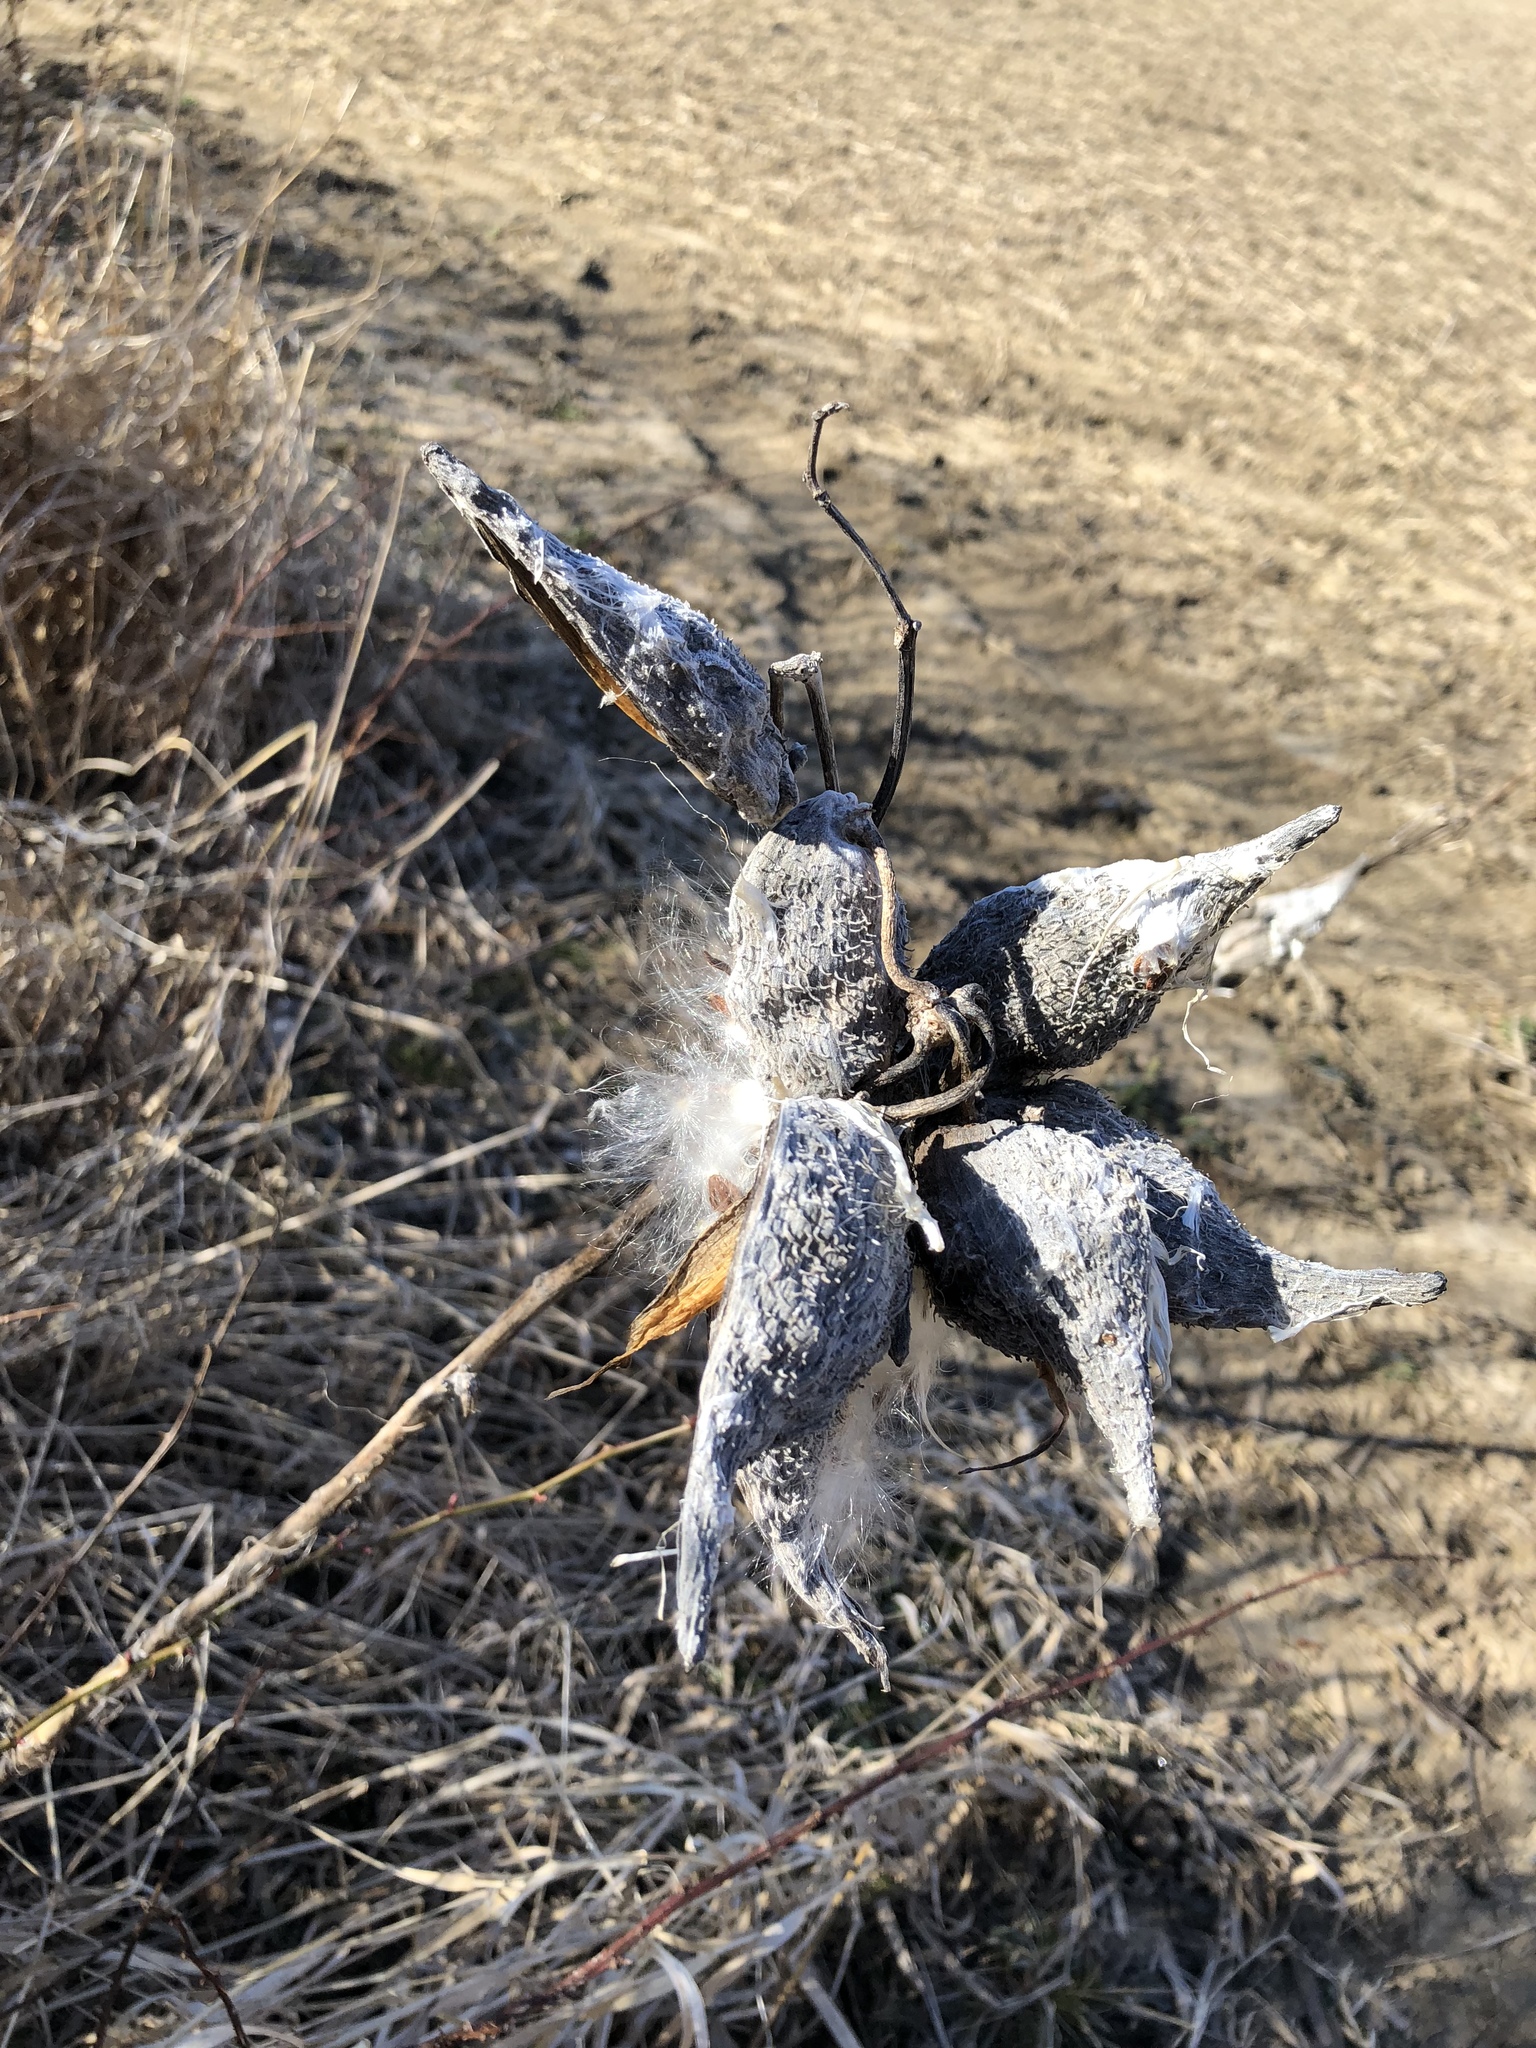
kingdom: Plantae
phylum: Tracheophyta
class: Magnoliopsida
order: Gentianales
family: Apocynaceae
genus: Asclepias
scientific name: Asclepias syriaca
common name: Common milkweed
